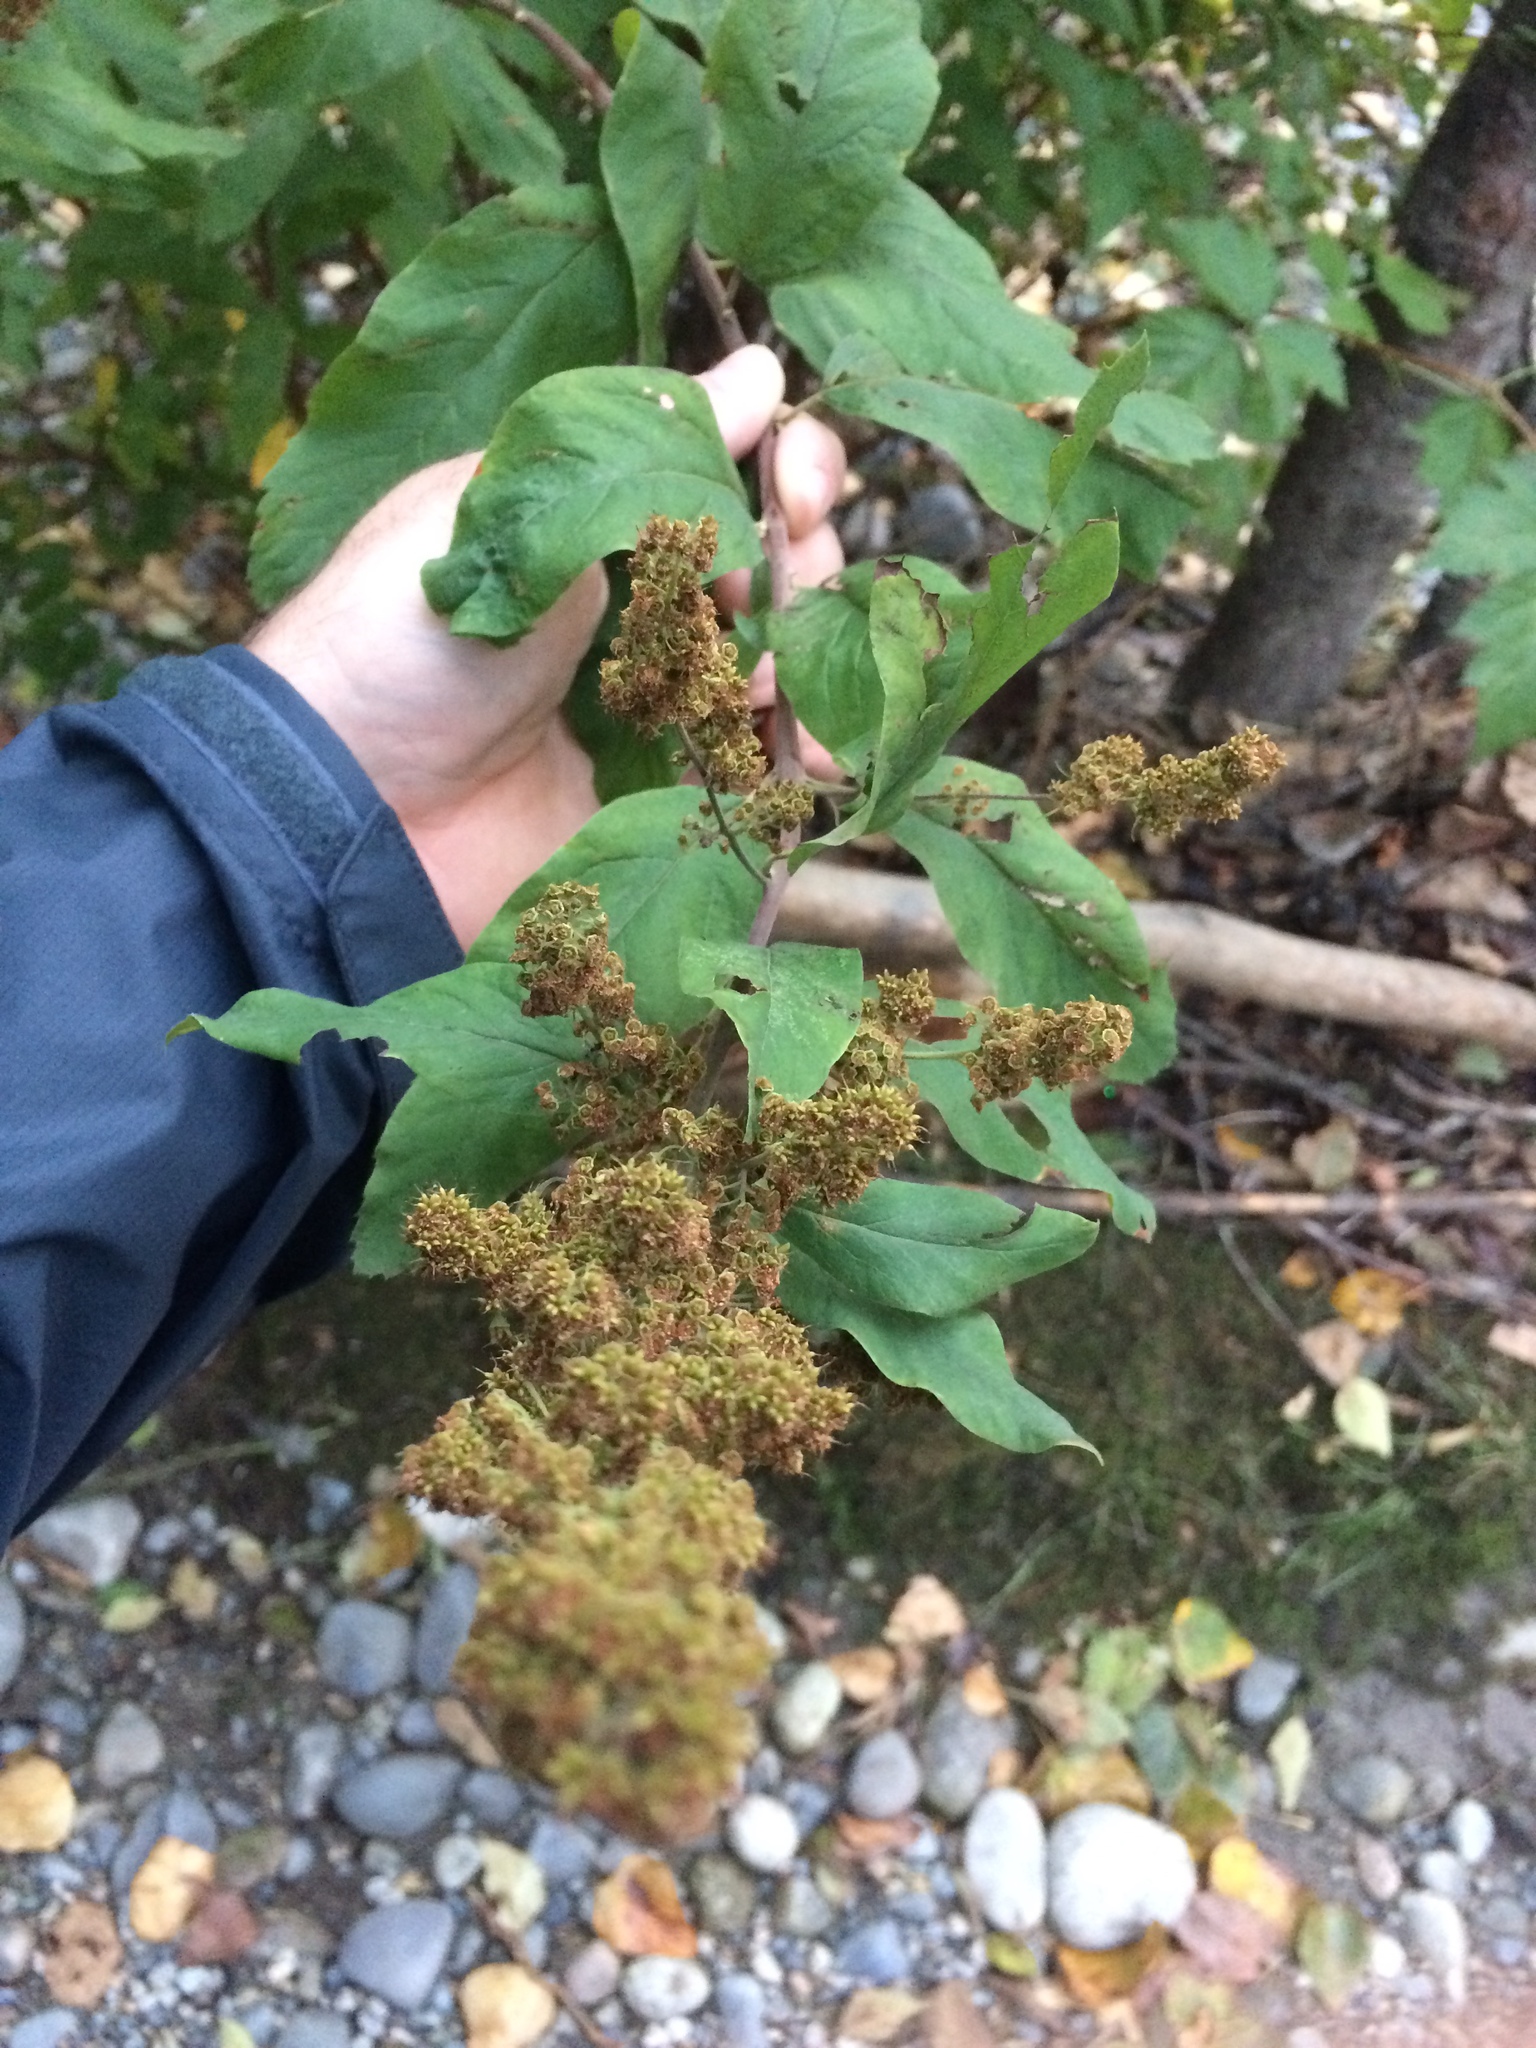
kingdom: Plantae
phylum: Tracheophyta
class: Magnoliopsida
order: Rosales
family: Rosaceae
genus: Spiraea
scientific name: Spiraea douglasii
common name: Steeplebush
